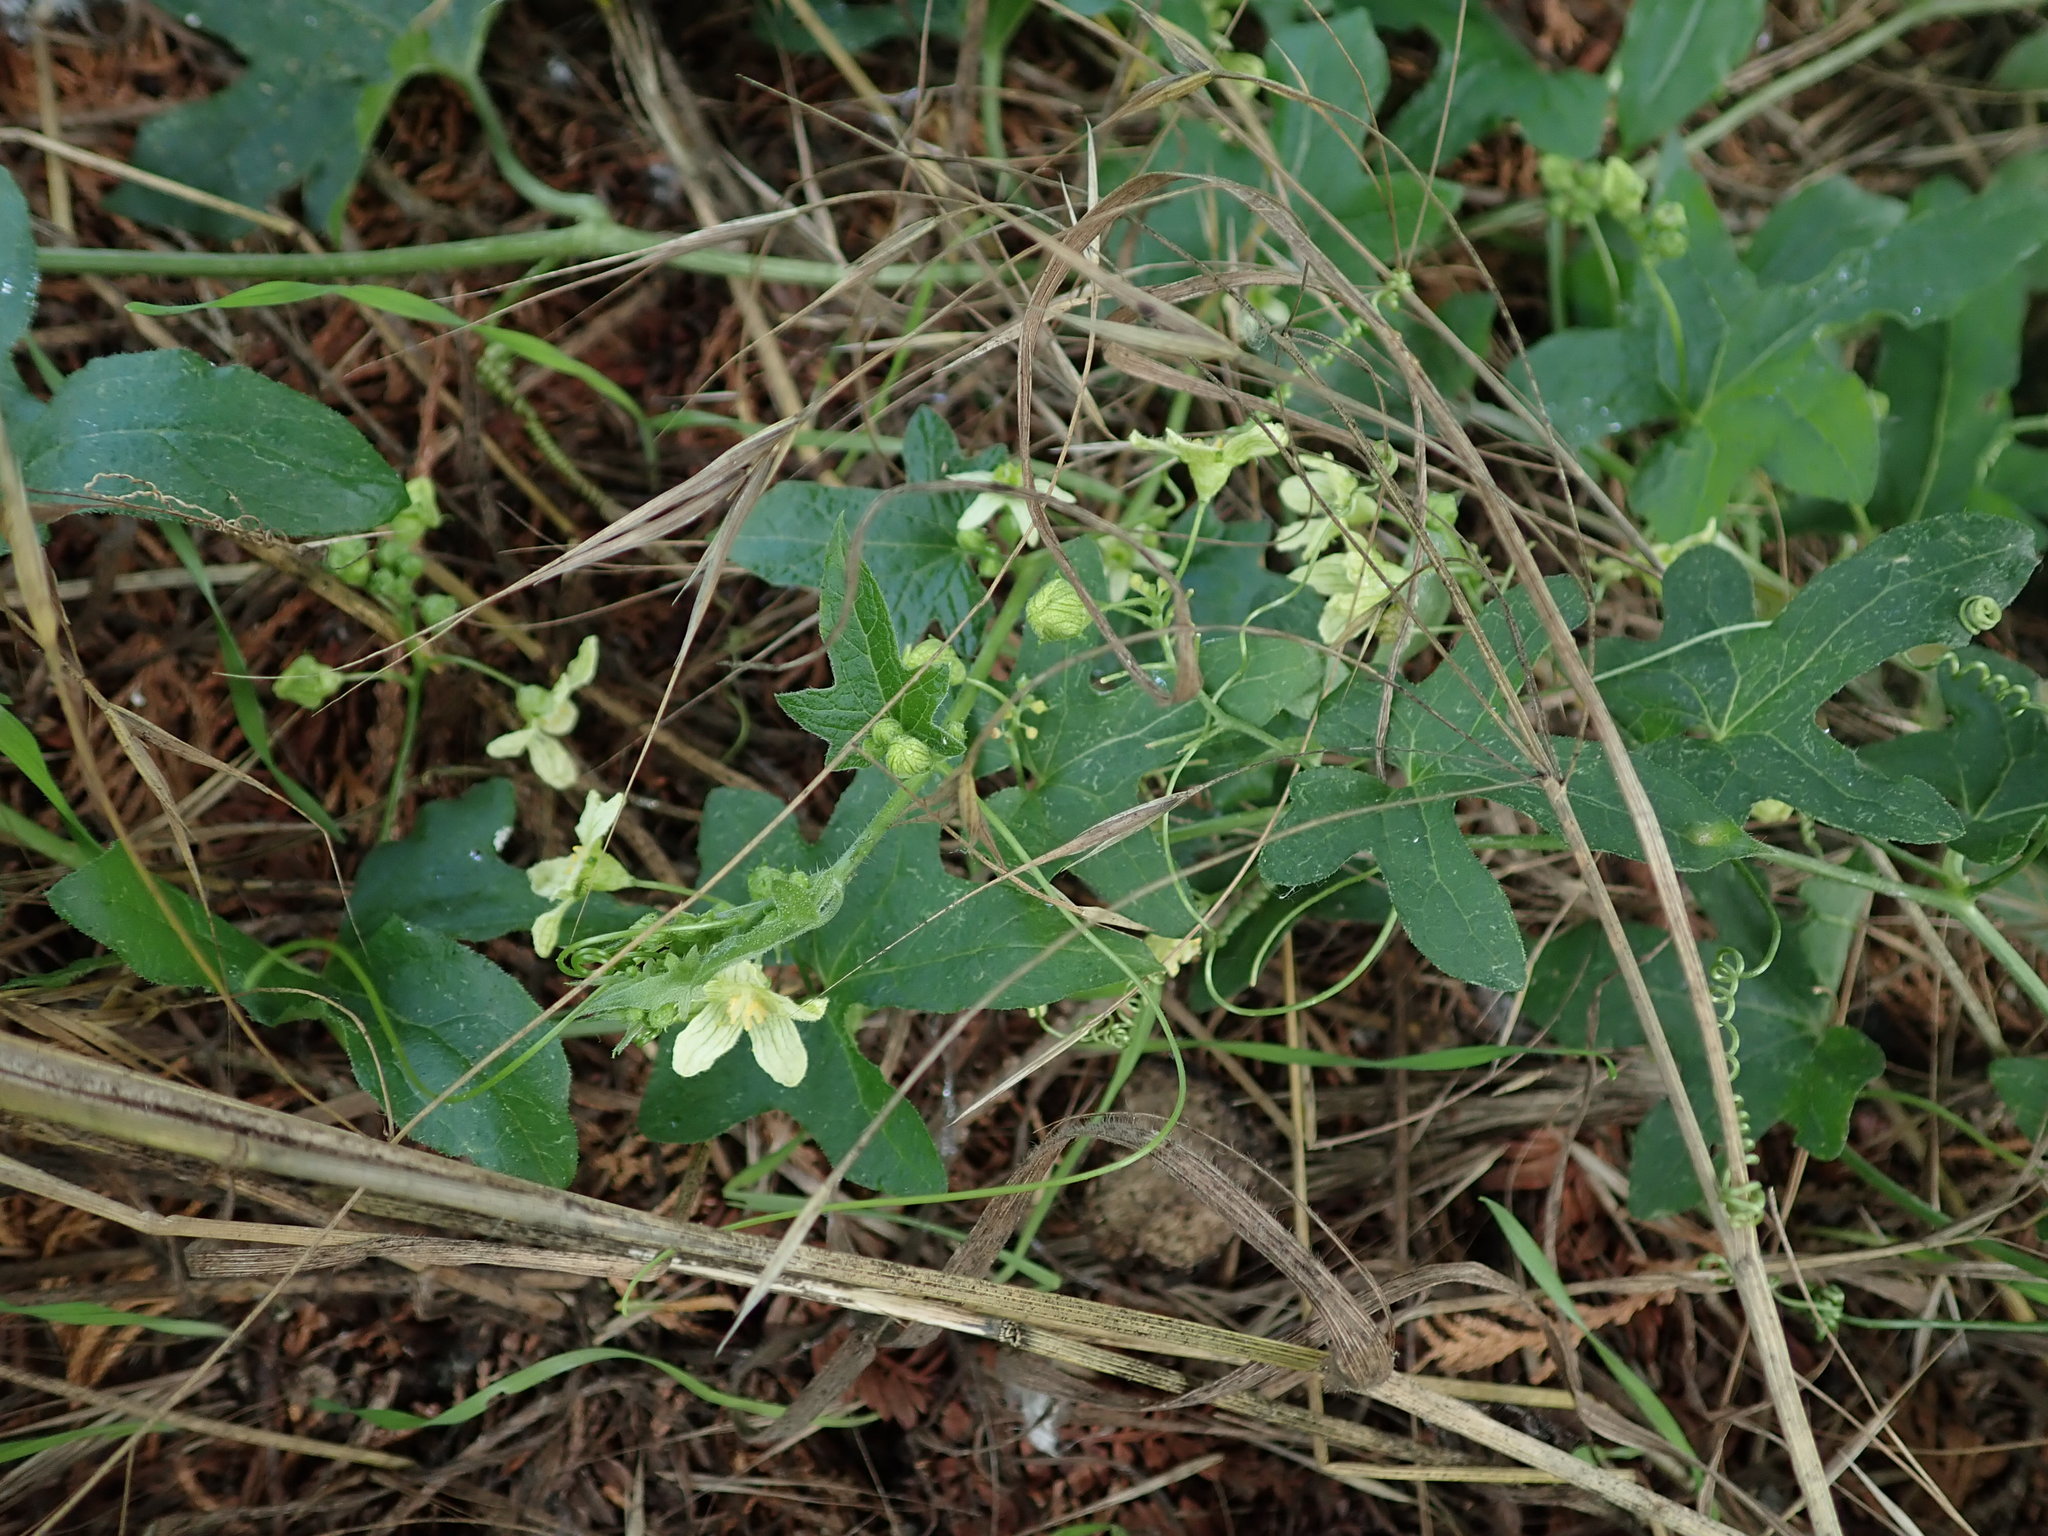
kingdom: Plantae
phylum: Tracheophyta
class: Magnoliopsida
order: Cucurbitales
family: Cucurbitaceae
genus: Bryonia
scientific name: Bryonia cretica
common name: Cretan bryony
